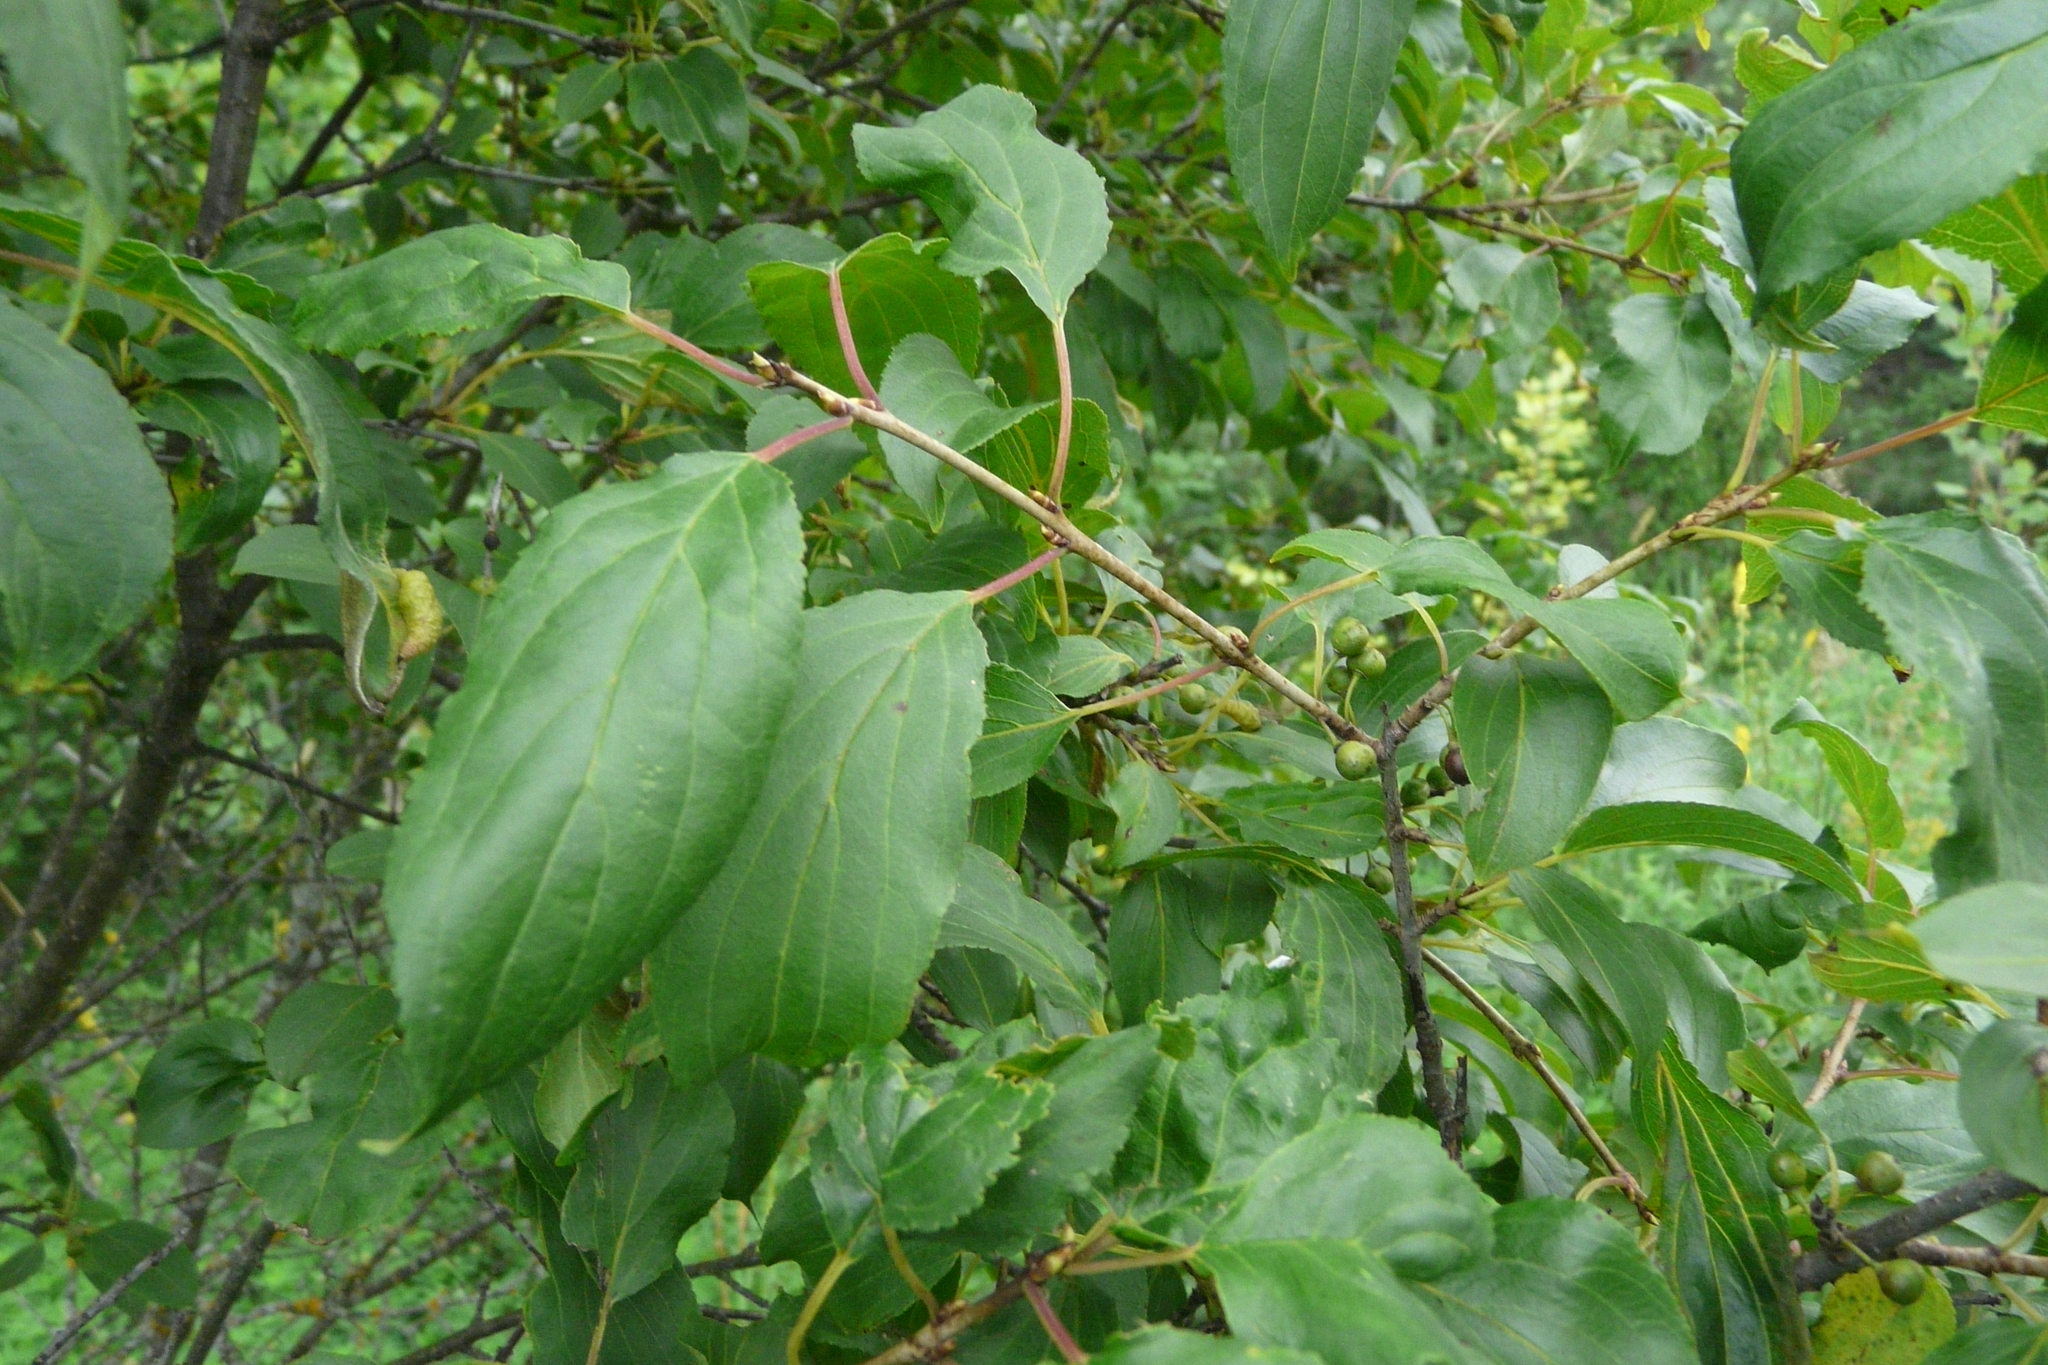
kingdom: Plantae
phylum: Tracheophyta
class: Magnoliopsida
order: Rosales
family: Rhamnaceae
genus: Rhamnus
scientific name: Rhamnus cathartica
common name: Common buckthorn
